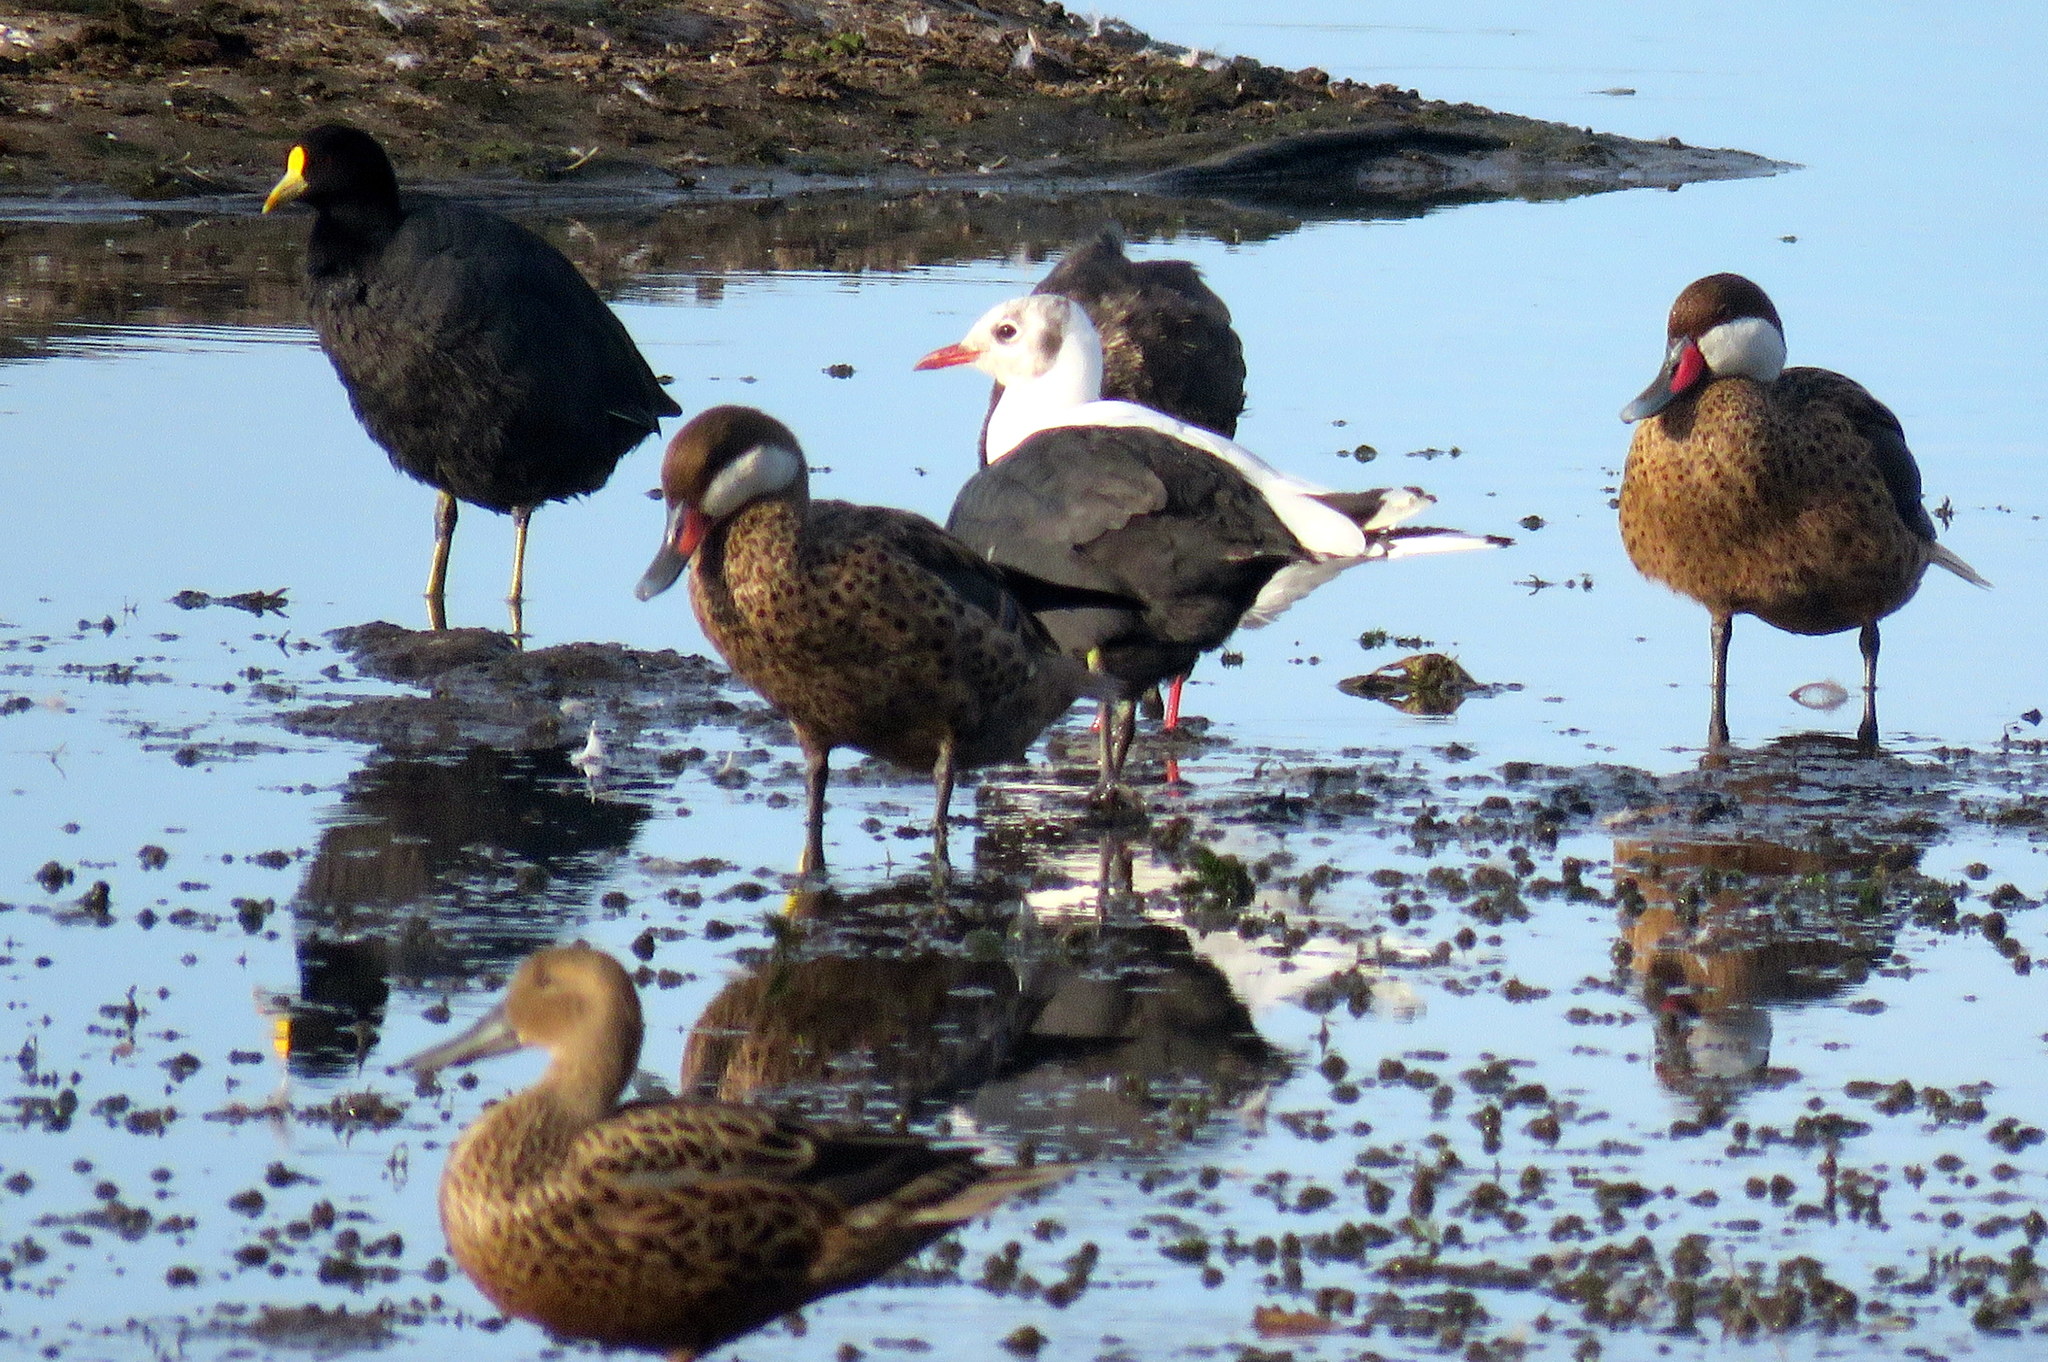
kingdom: Animalia
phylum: Chordata
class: Aves
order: Anseriformes
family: Anatidae
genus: Anas
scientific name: Anas bahamensis
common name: White-cheeked pintail
